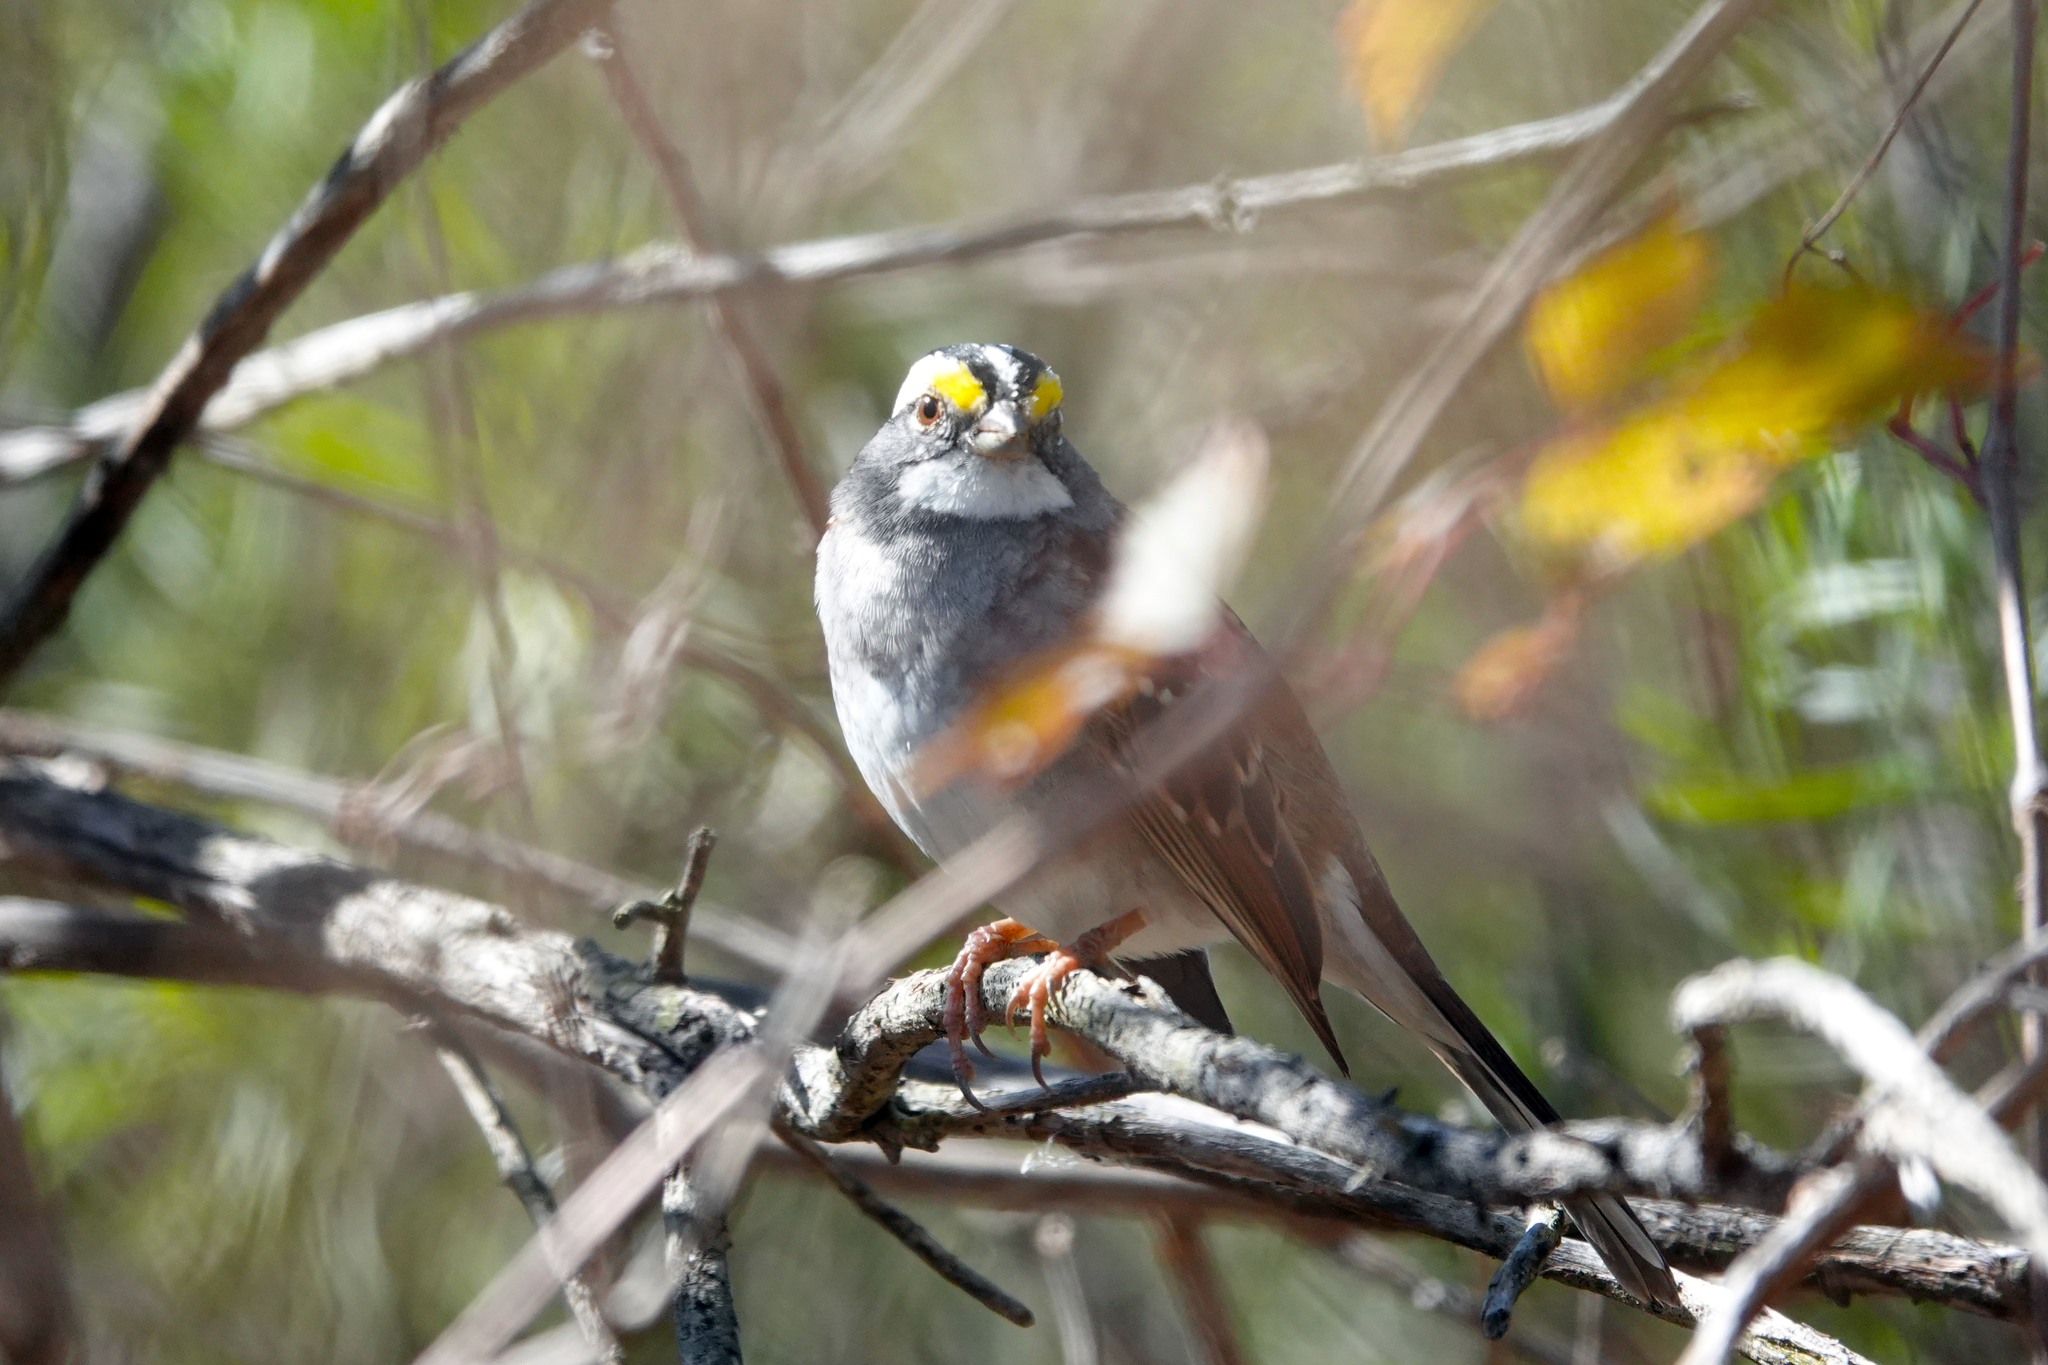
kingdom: Animalia
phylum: Chordata
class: Aves
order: Passeriformes
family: Passerellidae
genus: Zonotrichia
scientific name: Zonotrichia albicollis
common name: White-throated sparrow
